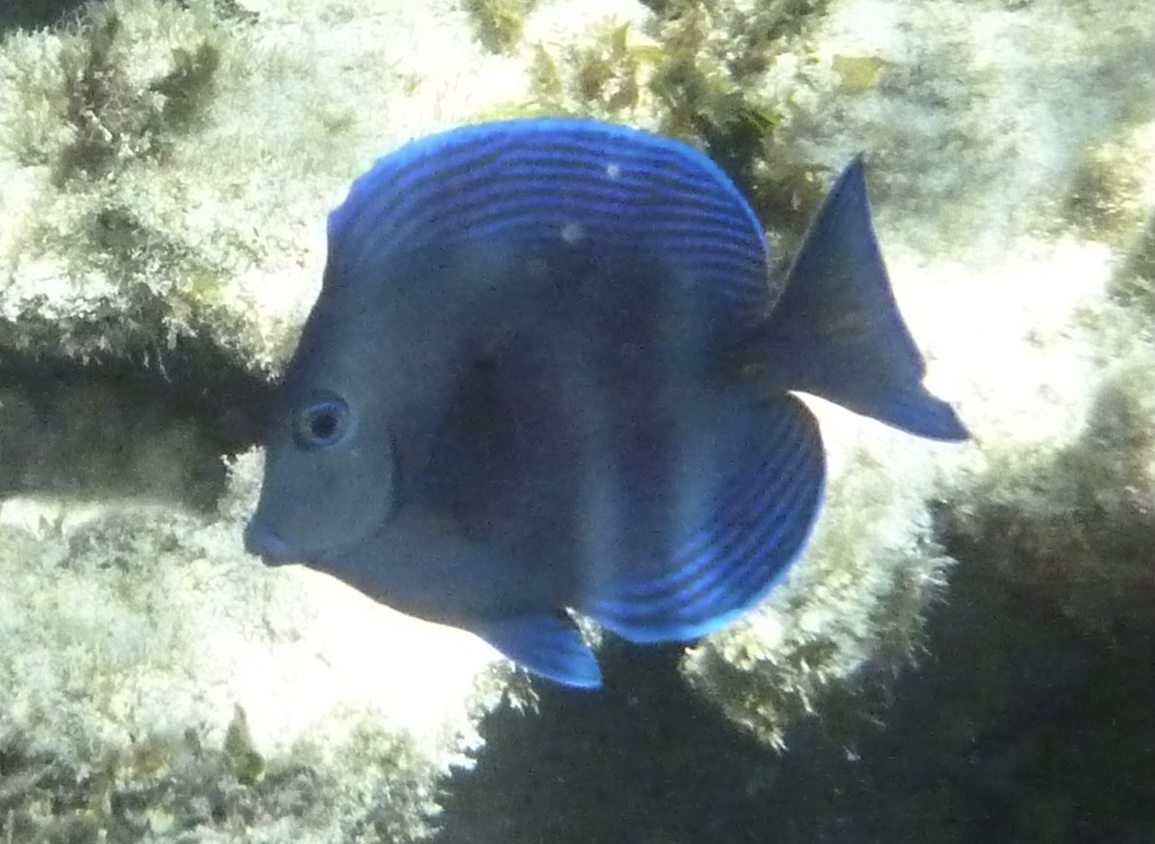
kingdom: Animalia
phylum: Chordata
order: Perciformes
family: Acanthuridae
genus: Acanthurus
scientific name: Acanthurus coeruleus
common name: Blue tang
